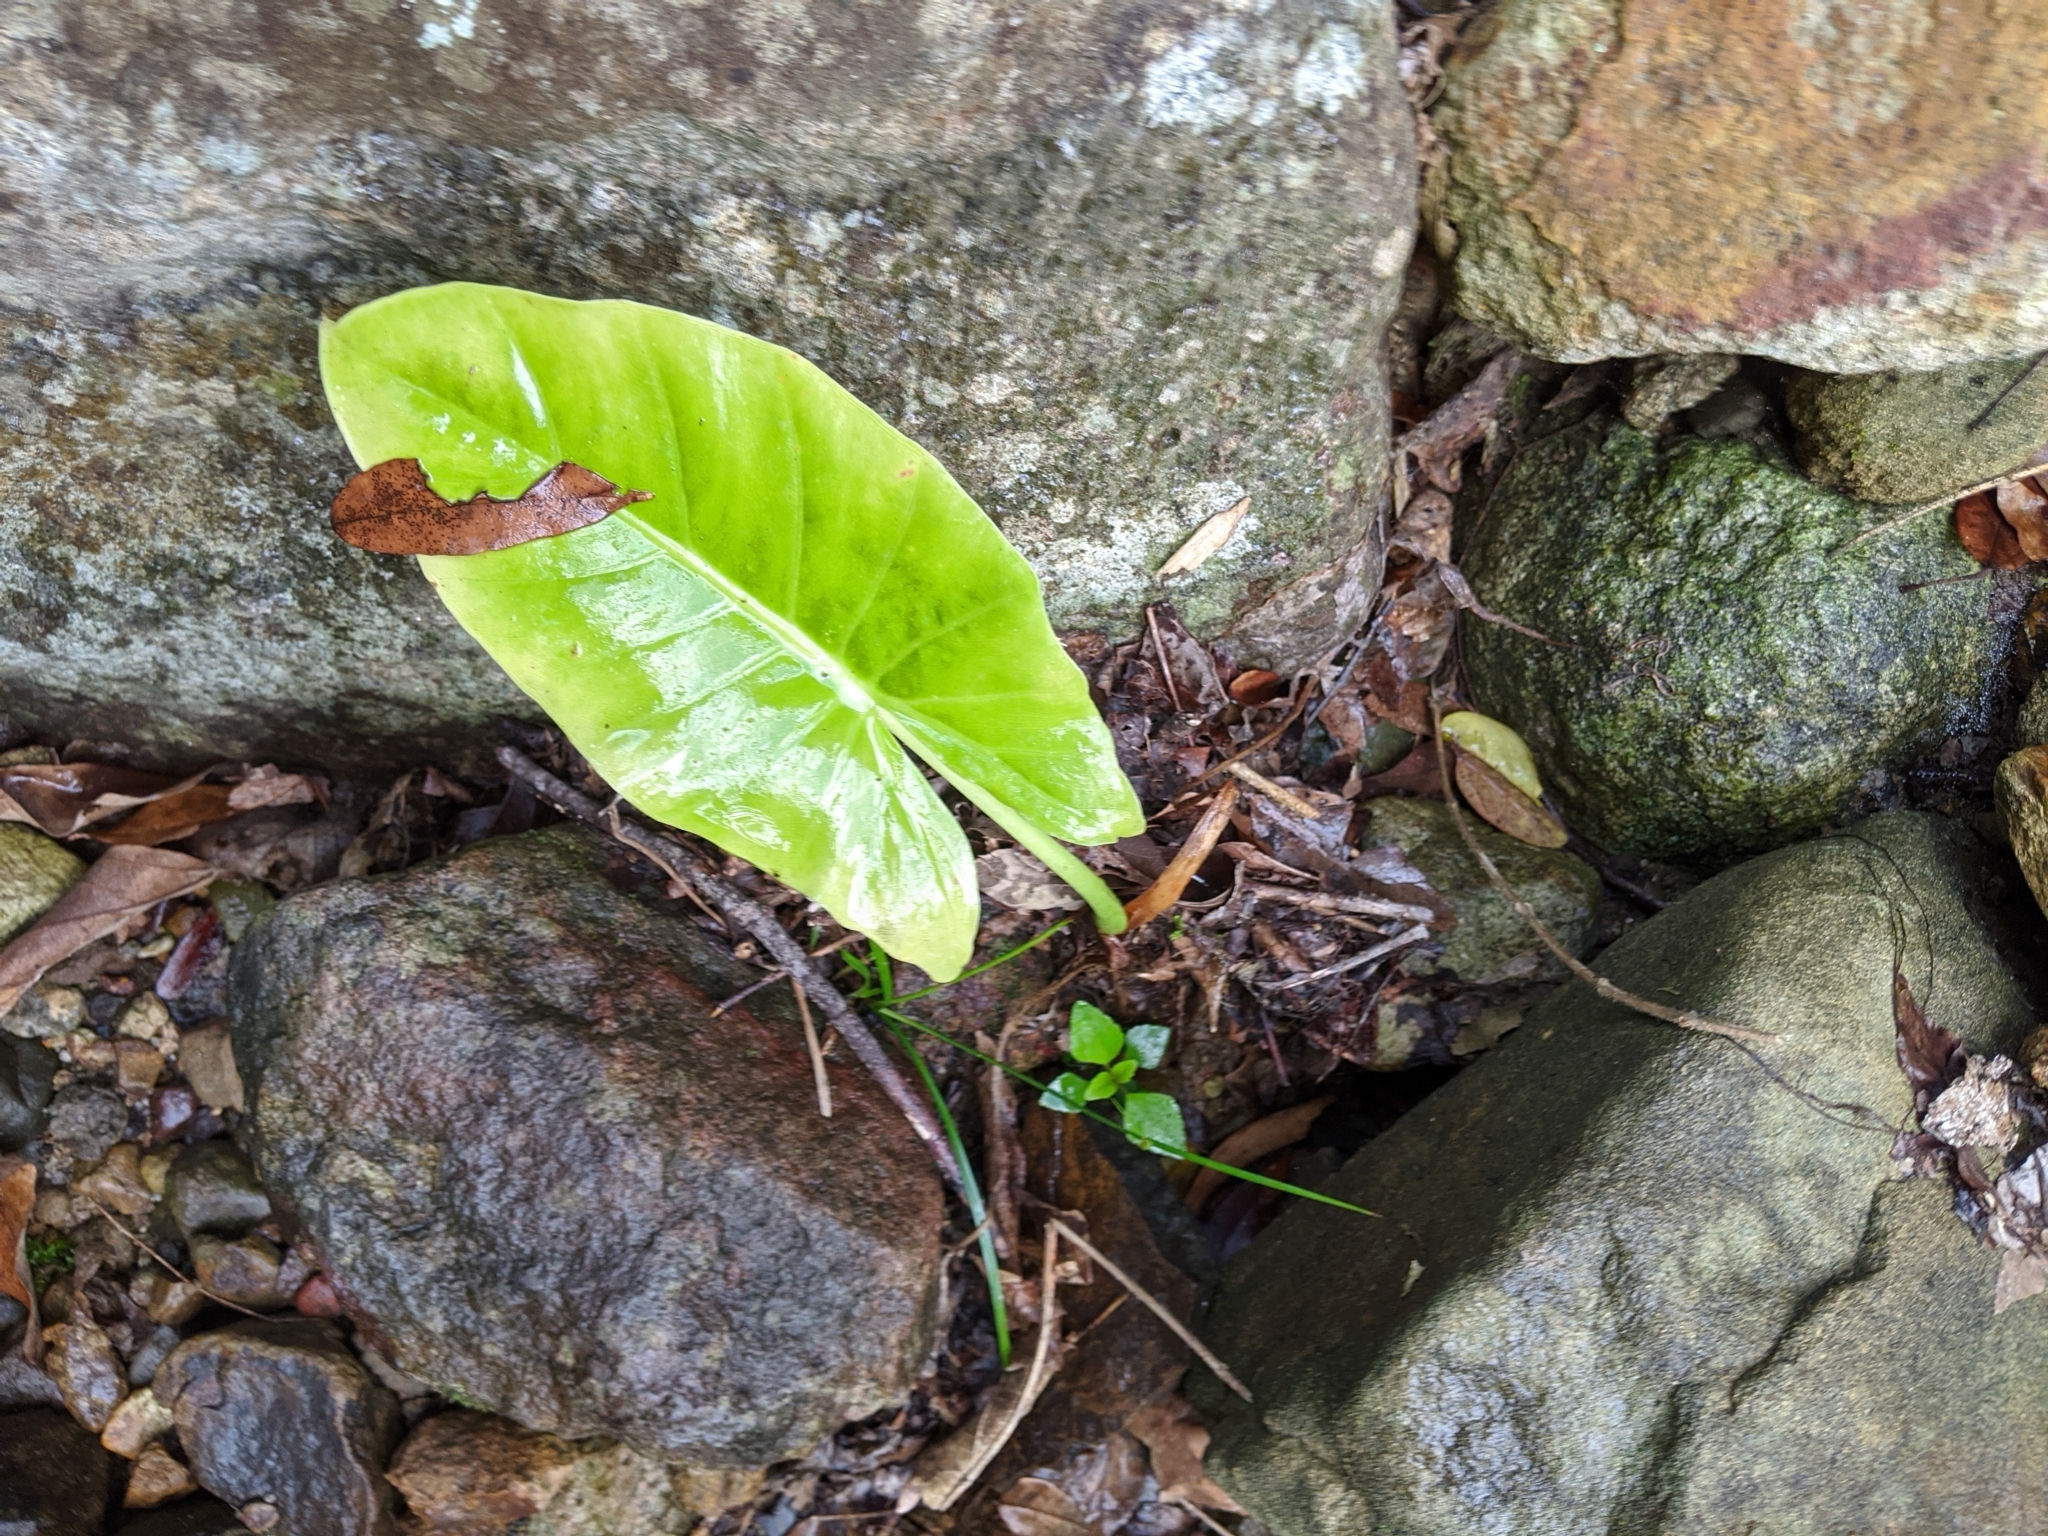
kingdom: Plantae
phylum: Tracheophyta
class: Liliopsida
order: Alismatales
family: Araceae
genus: Alocasia
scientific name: Alocasia brisbanensis
